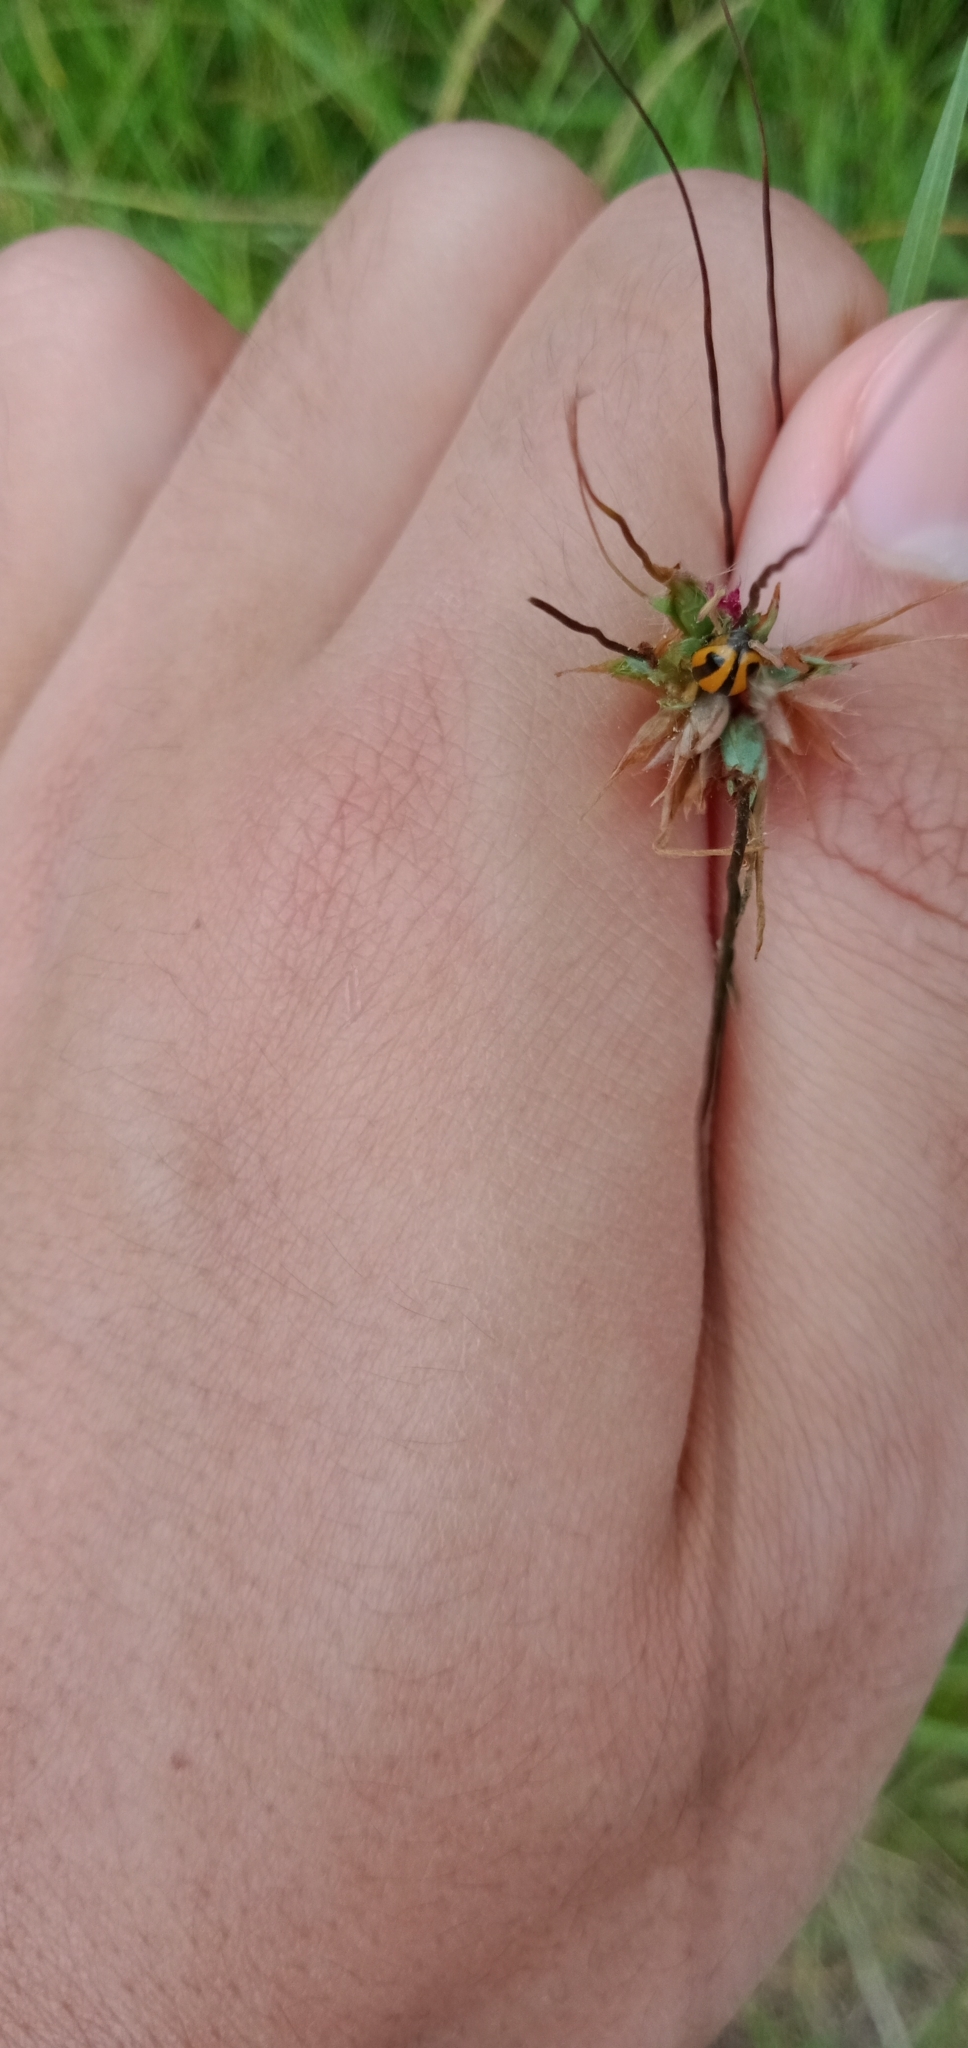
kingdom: Animalia
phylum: Arthropoda
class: Insecta
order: Coleoptera
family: Coccinellidae
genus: Micraspis
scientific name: Micraspis frenata
